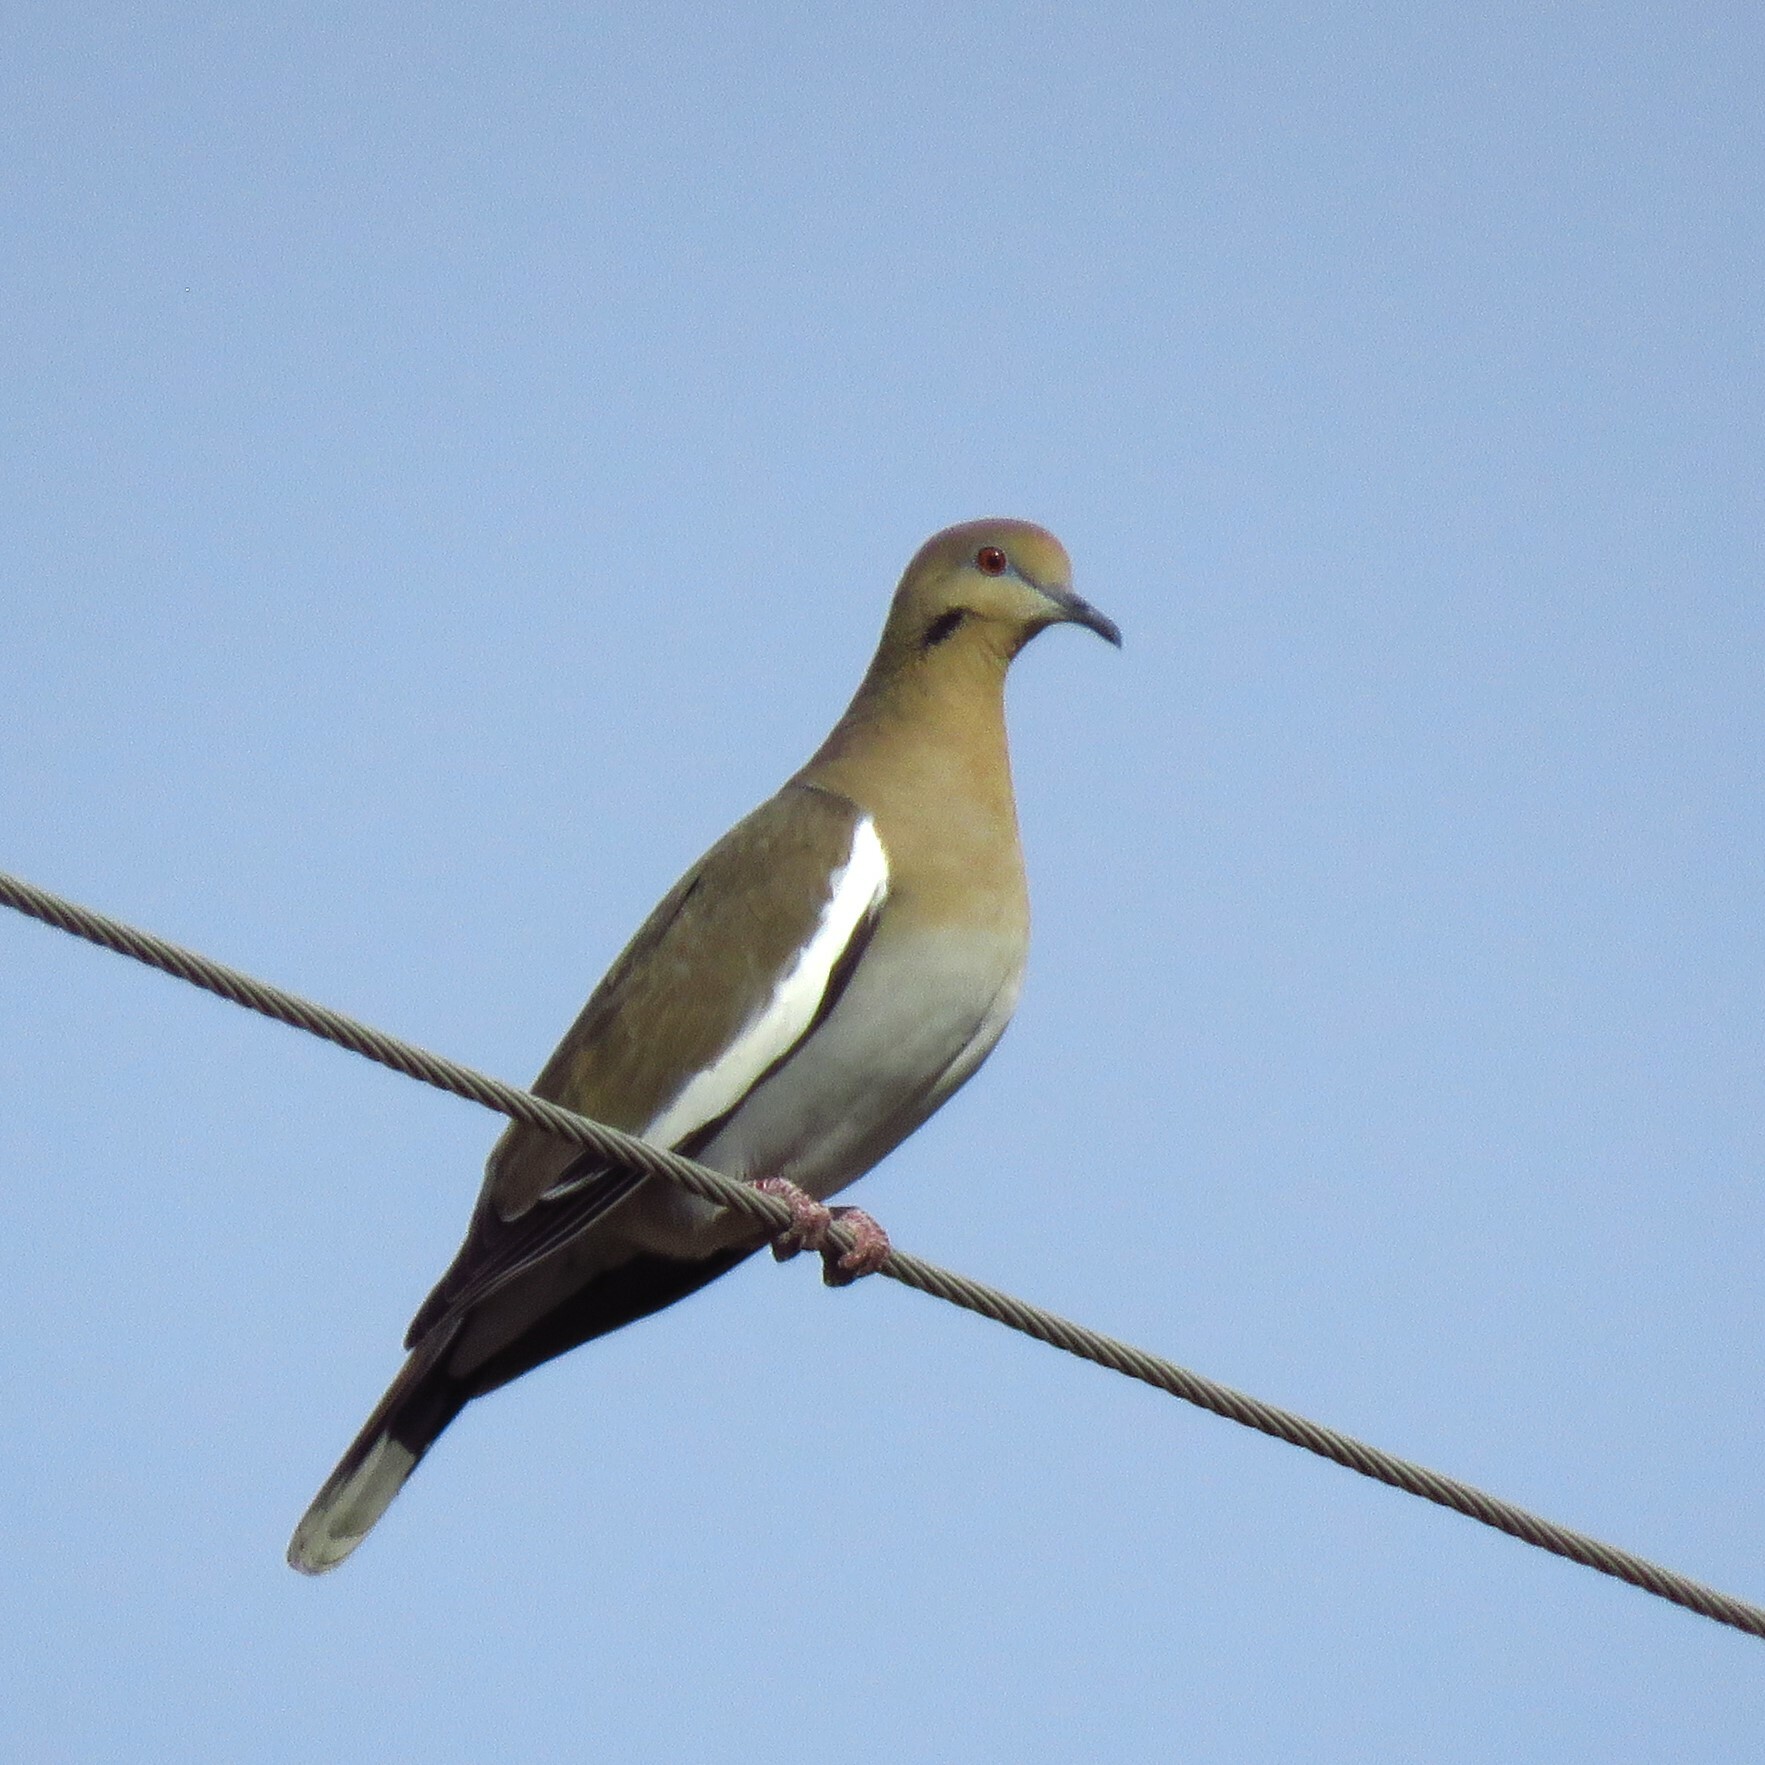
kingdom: Animalia
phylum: Chordata
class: Aves
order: Columbiformes
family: Columbidae
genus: Zenaida
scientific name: Zenaida asiatica
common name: White-winged dove
